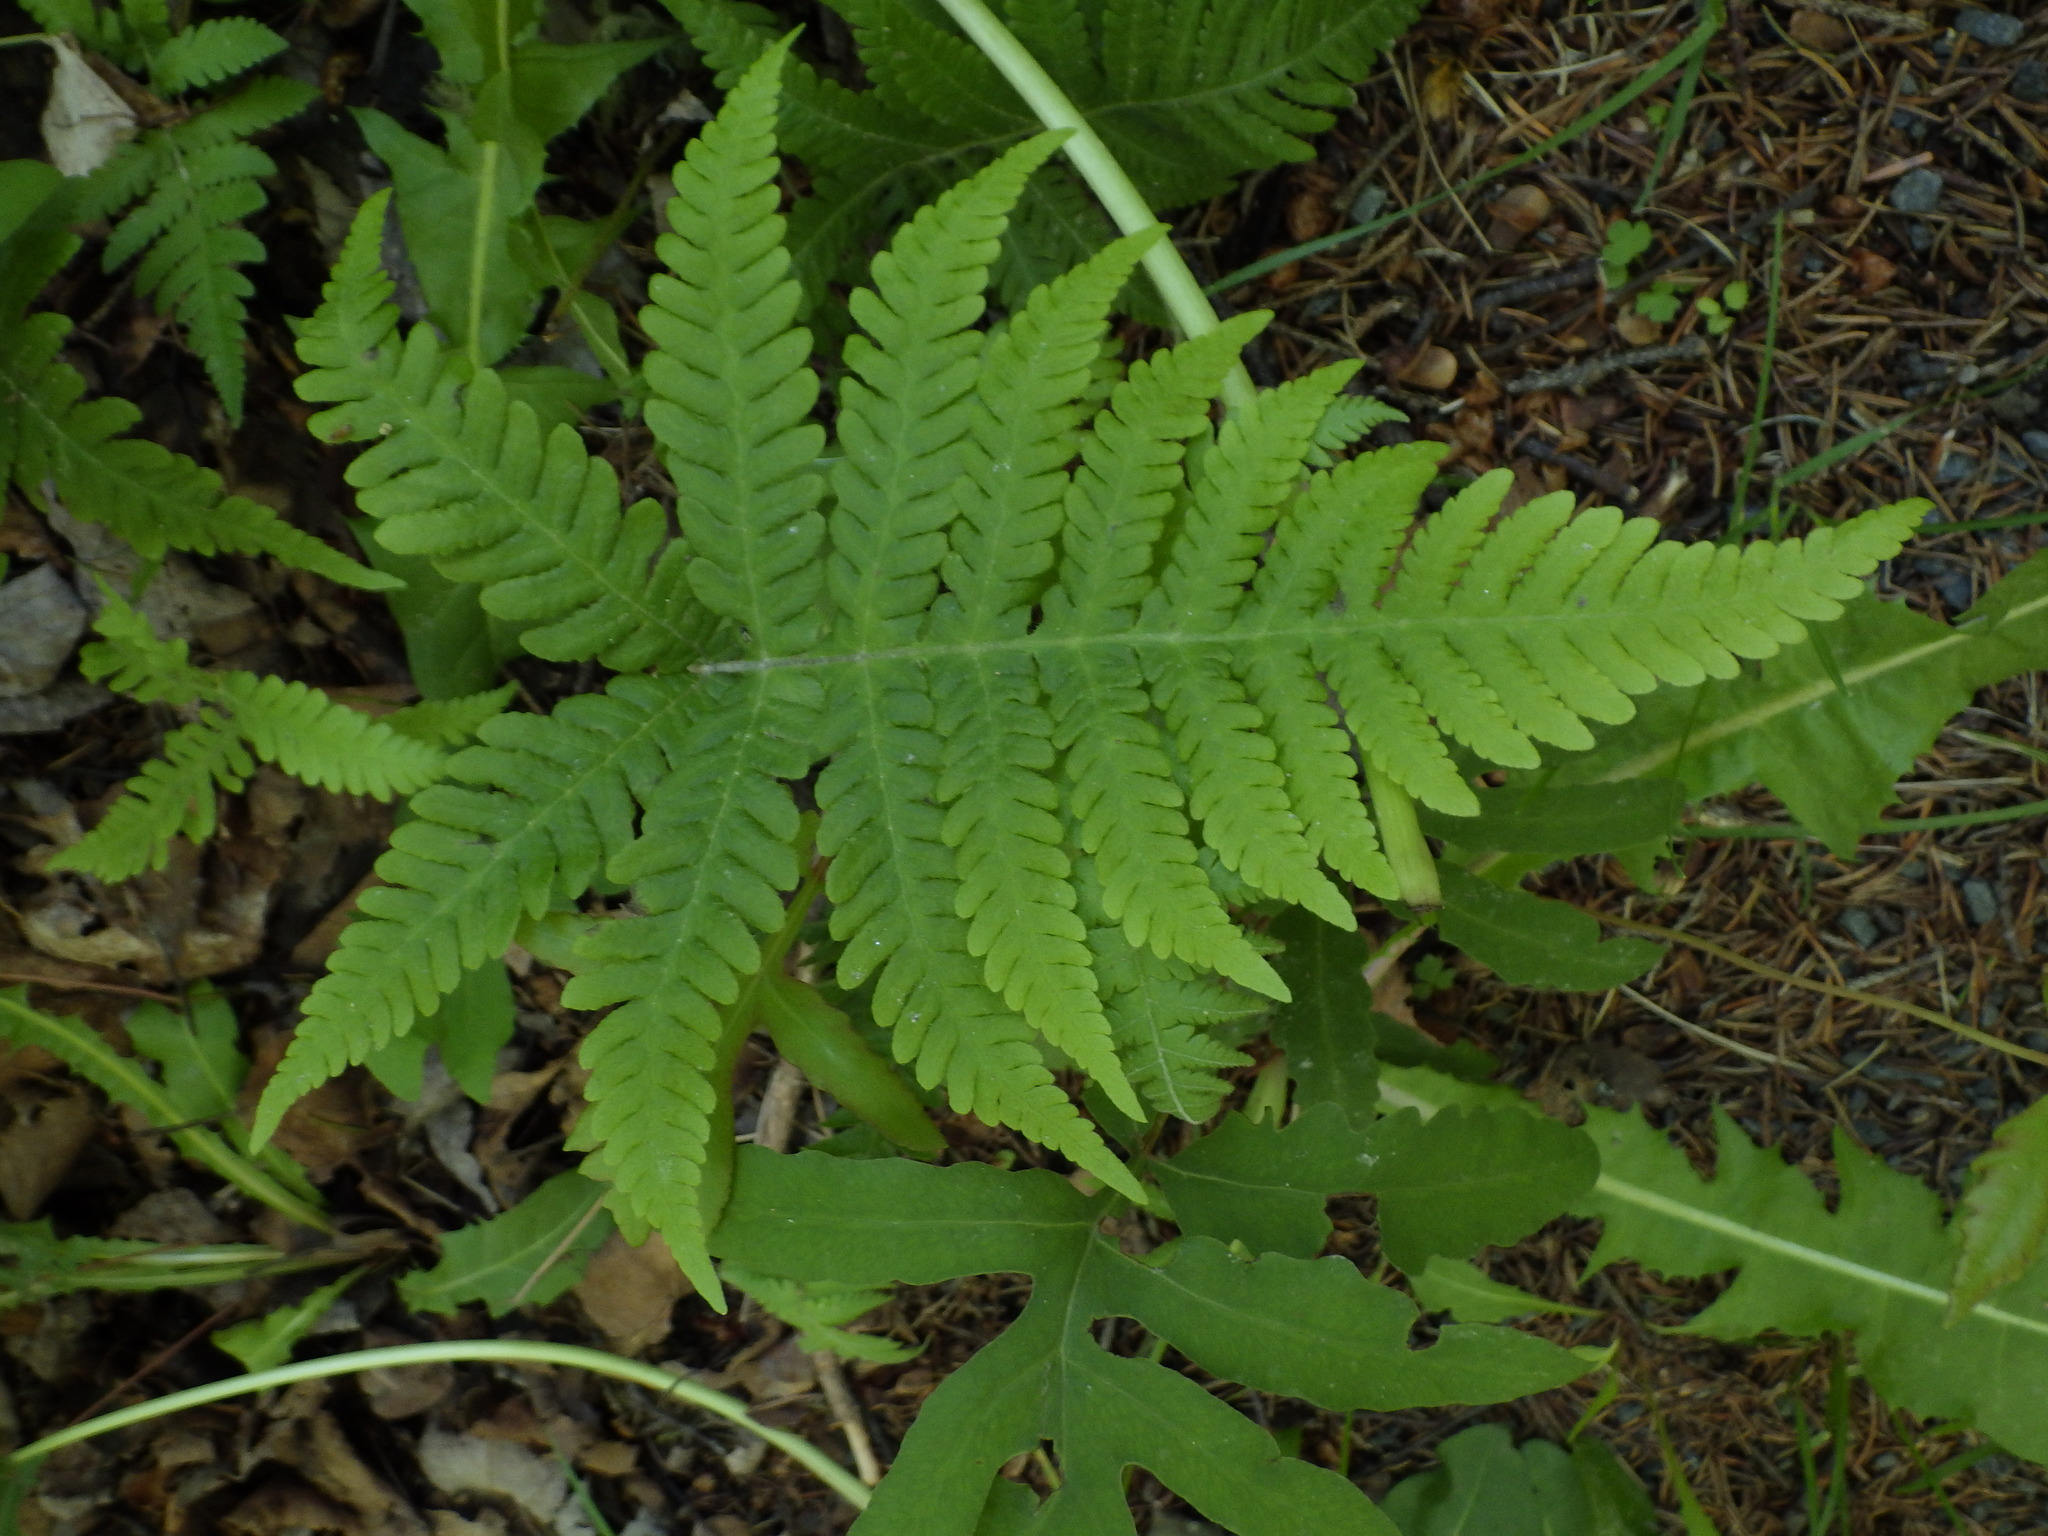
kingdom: Plantae
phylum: Tracheophyta
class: Polypodiopsida
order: Polypodiales
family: Thelypteridaceae
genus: Phegopteris
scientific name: Phegopteris connectilis
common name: Beech fern
